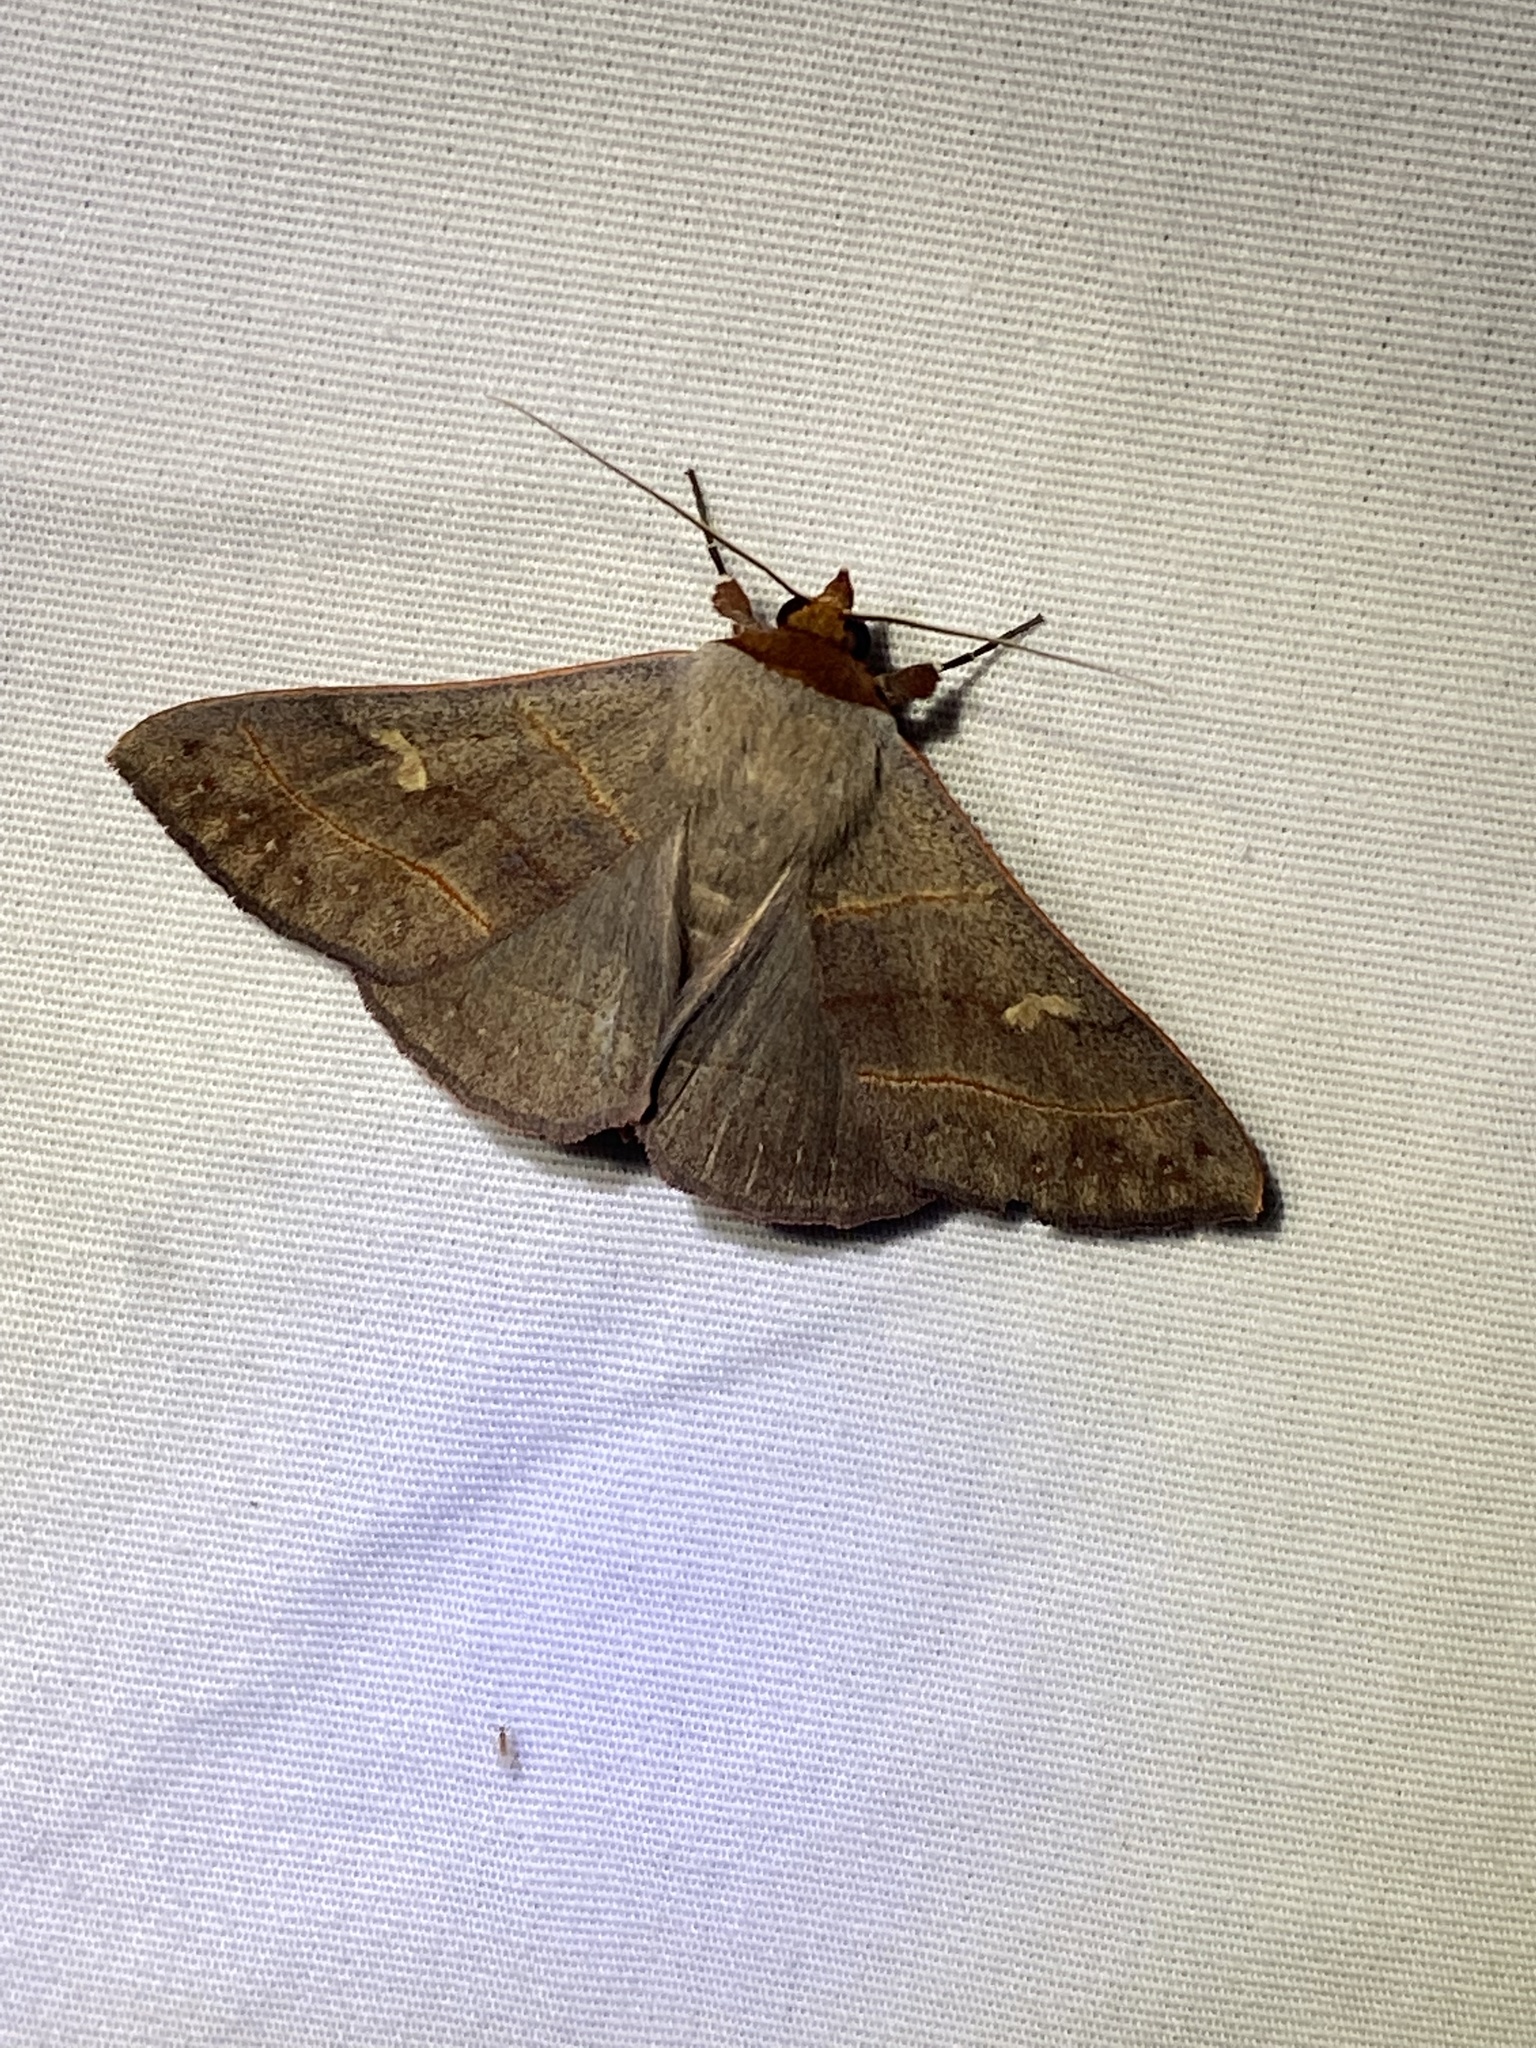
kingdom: Animalia
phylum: Arthropoda
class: Insecta
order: Lepidoptera
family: Erebidae
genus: Panopoda
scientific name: Panopoda rufimargo
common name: Red-lined panopoda moth
